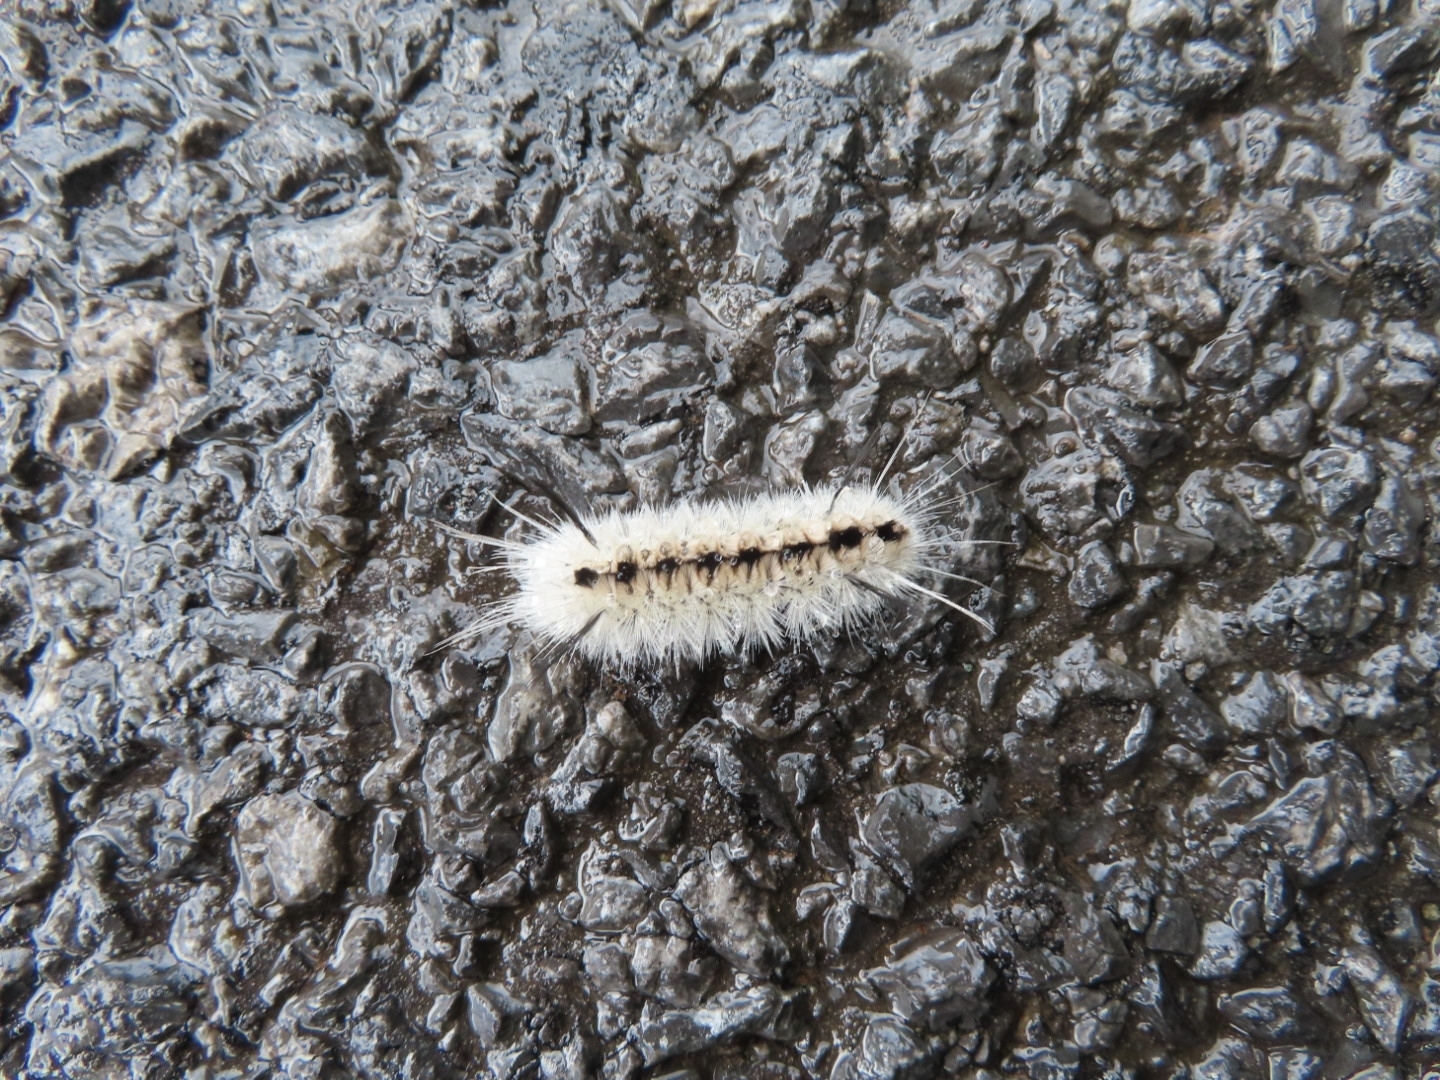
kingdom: Animalia
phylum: Arthropoda
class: Insecta
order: Lepidoptera
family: Erebidae
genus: Lophocampa
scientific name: Lophocampa caryae
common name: Hickory tussock moth
